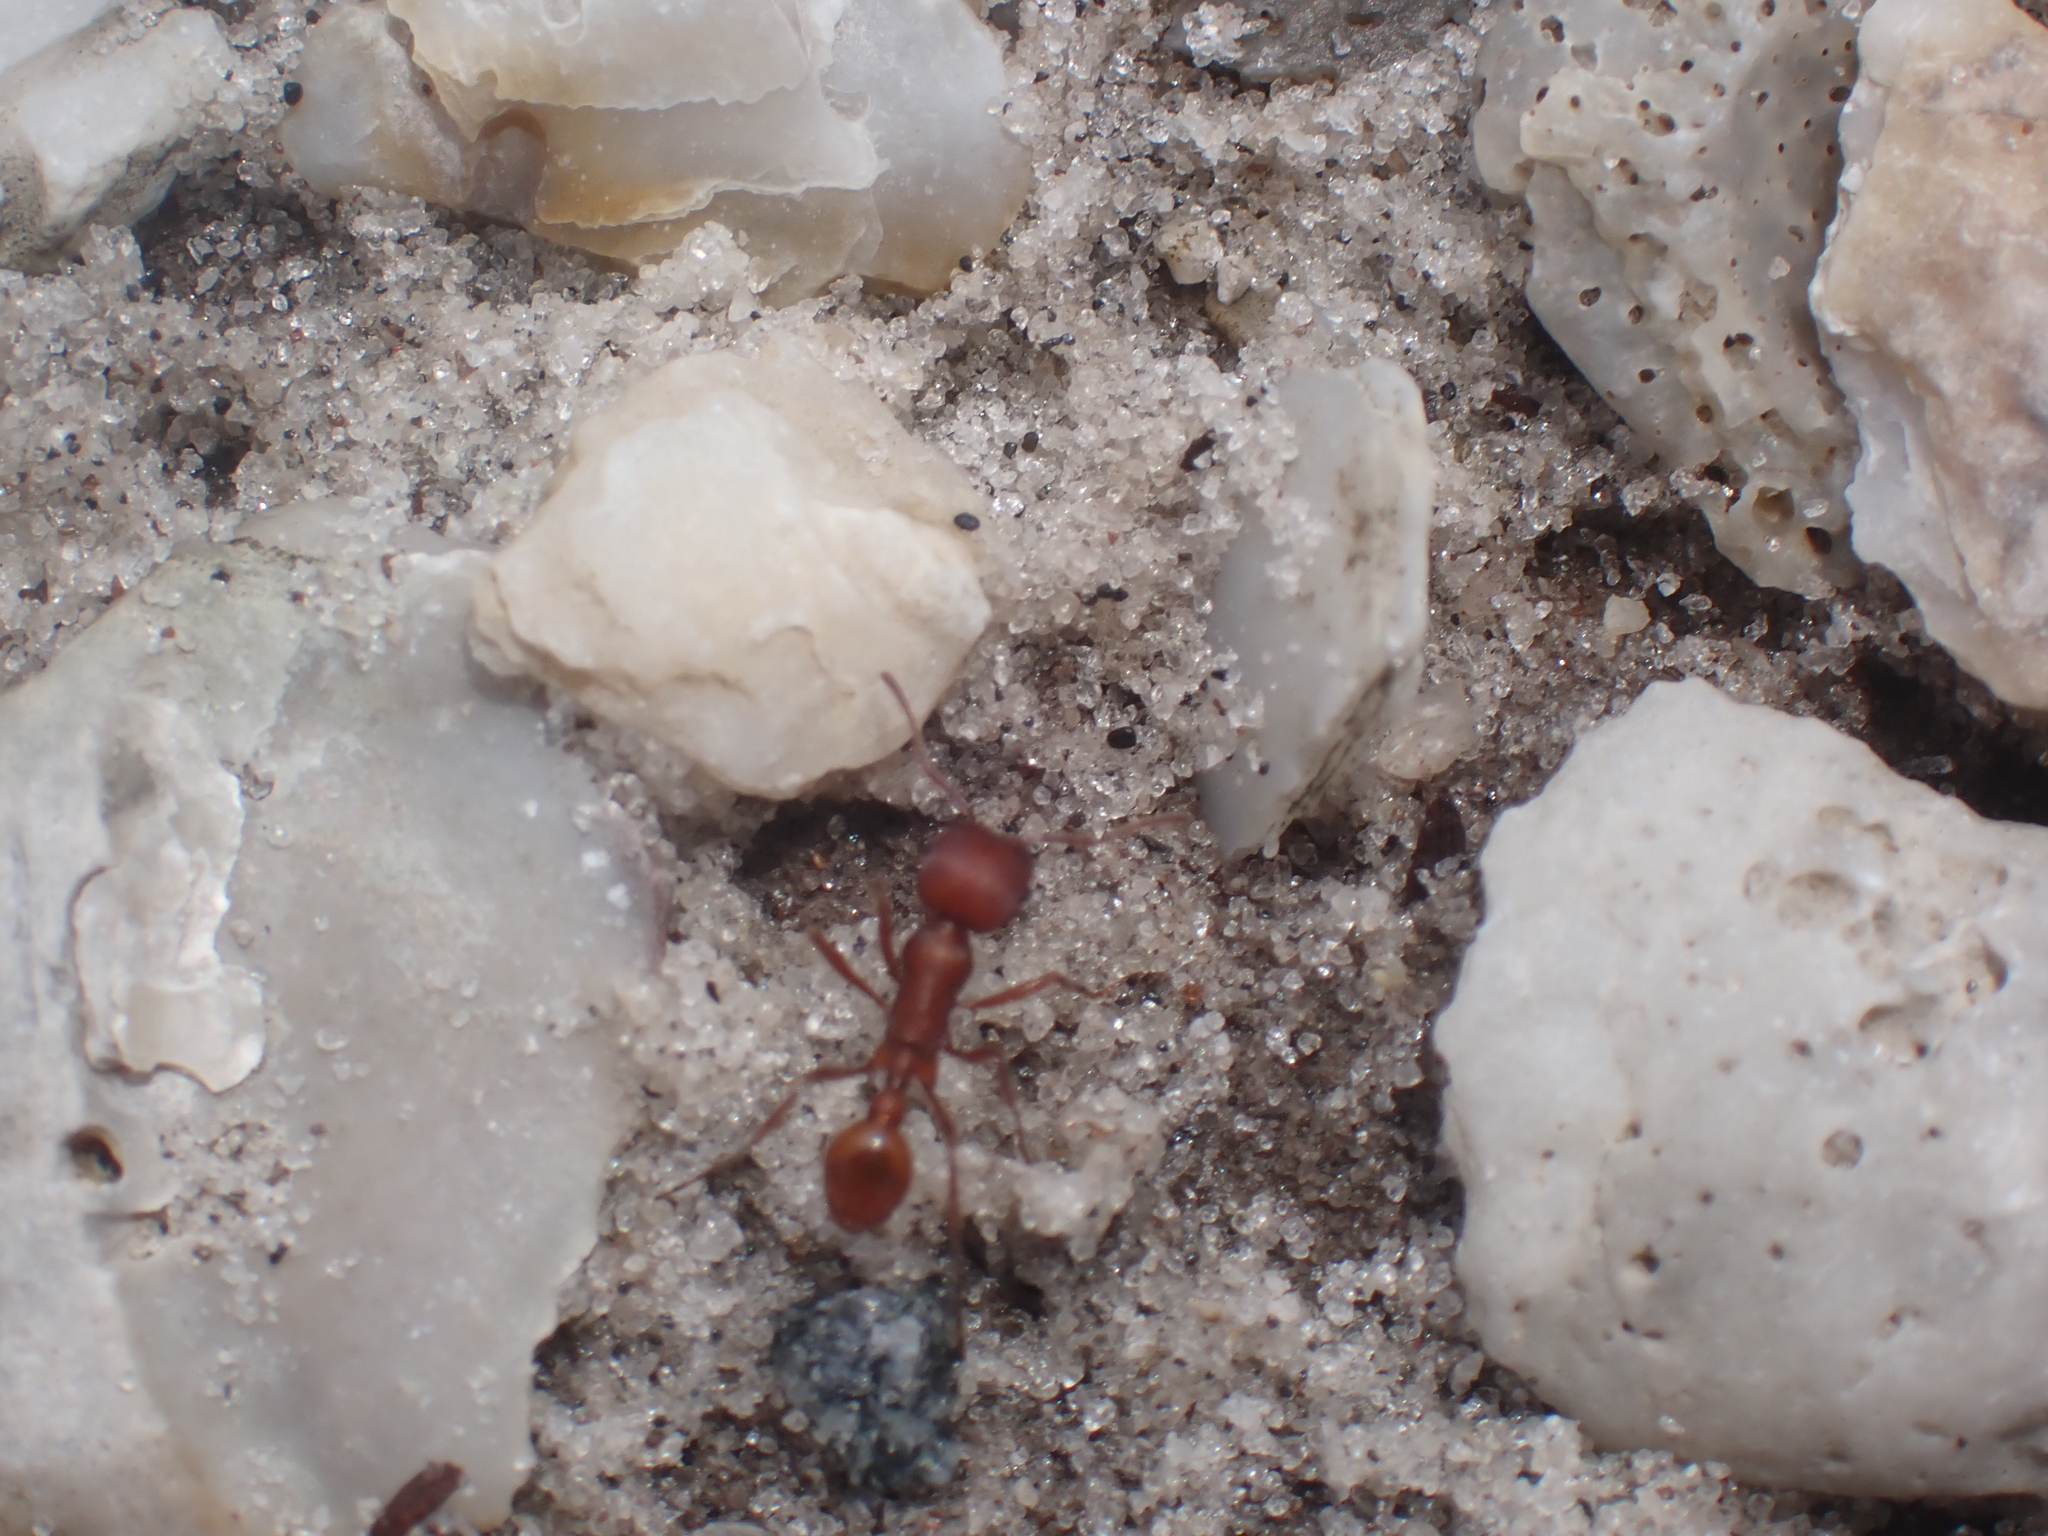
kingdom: Animalia
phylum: Arthropoda
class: Insecta
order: Hymenoptera
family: Formicidae
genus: Pogonomyrmex
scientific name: Pogonomyrmex badius
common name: Florida harvester ant
